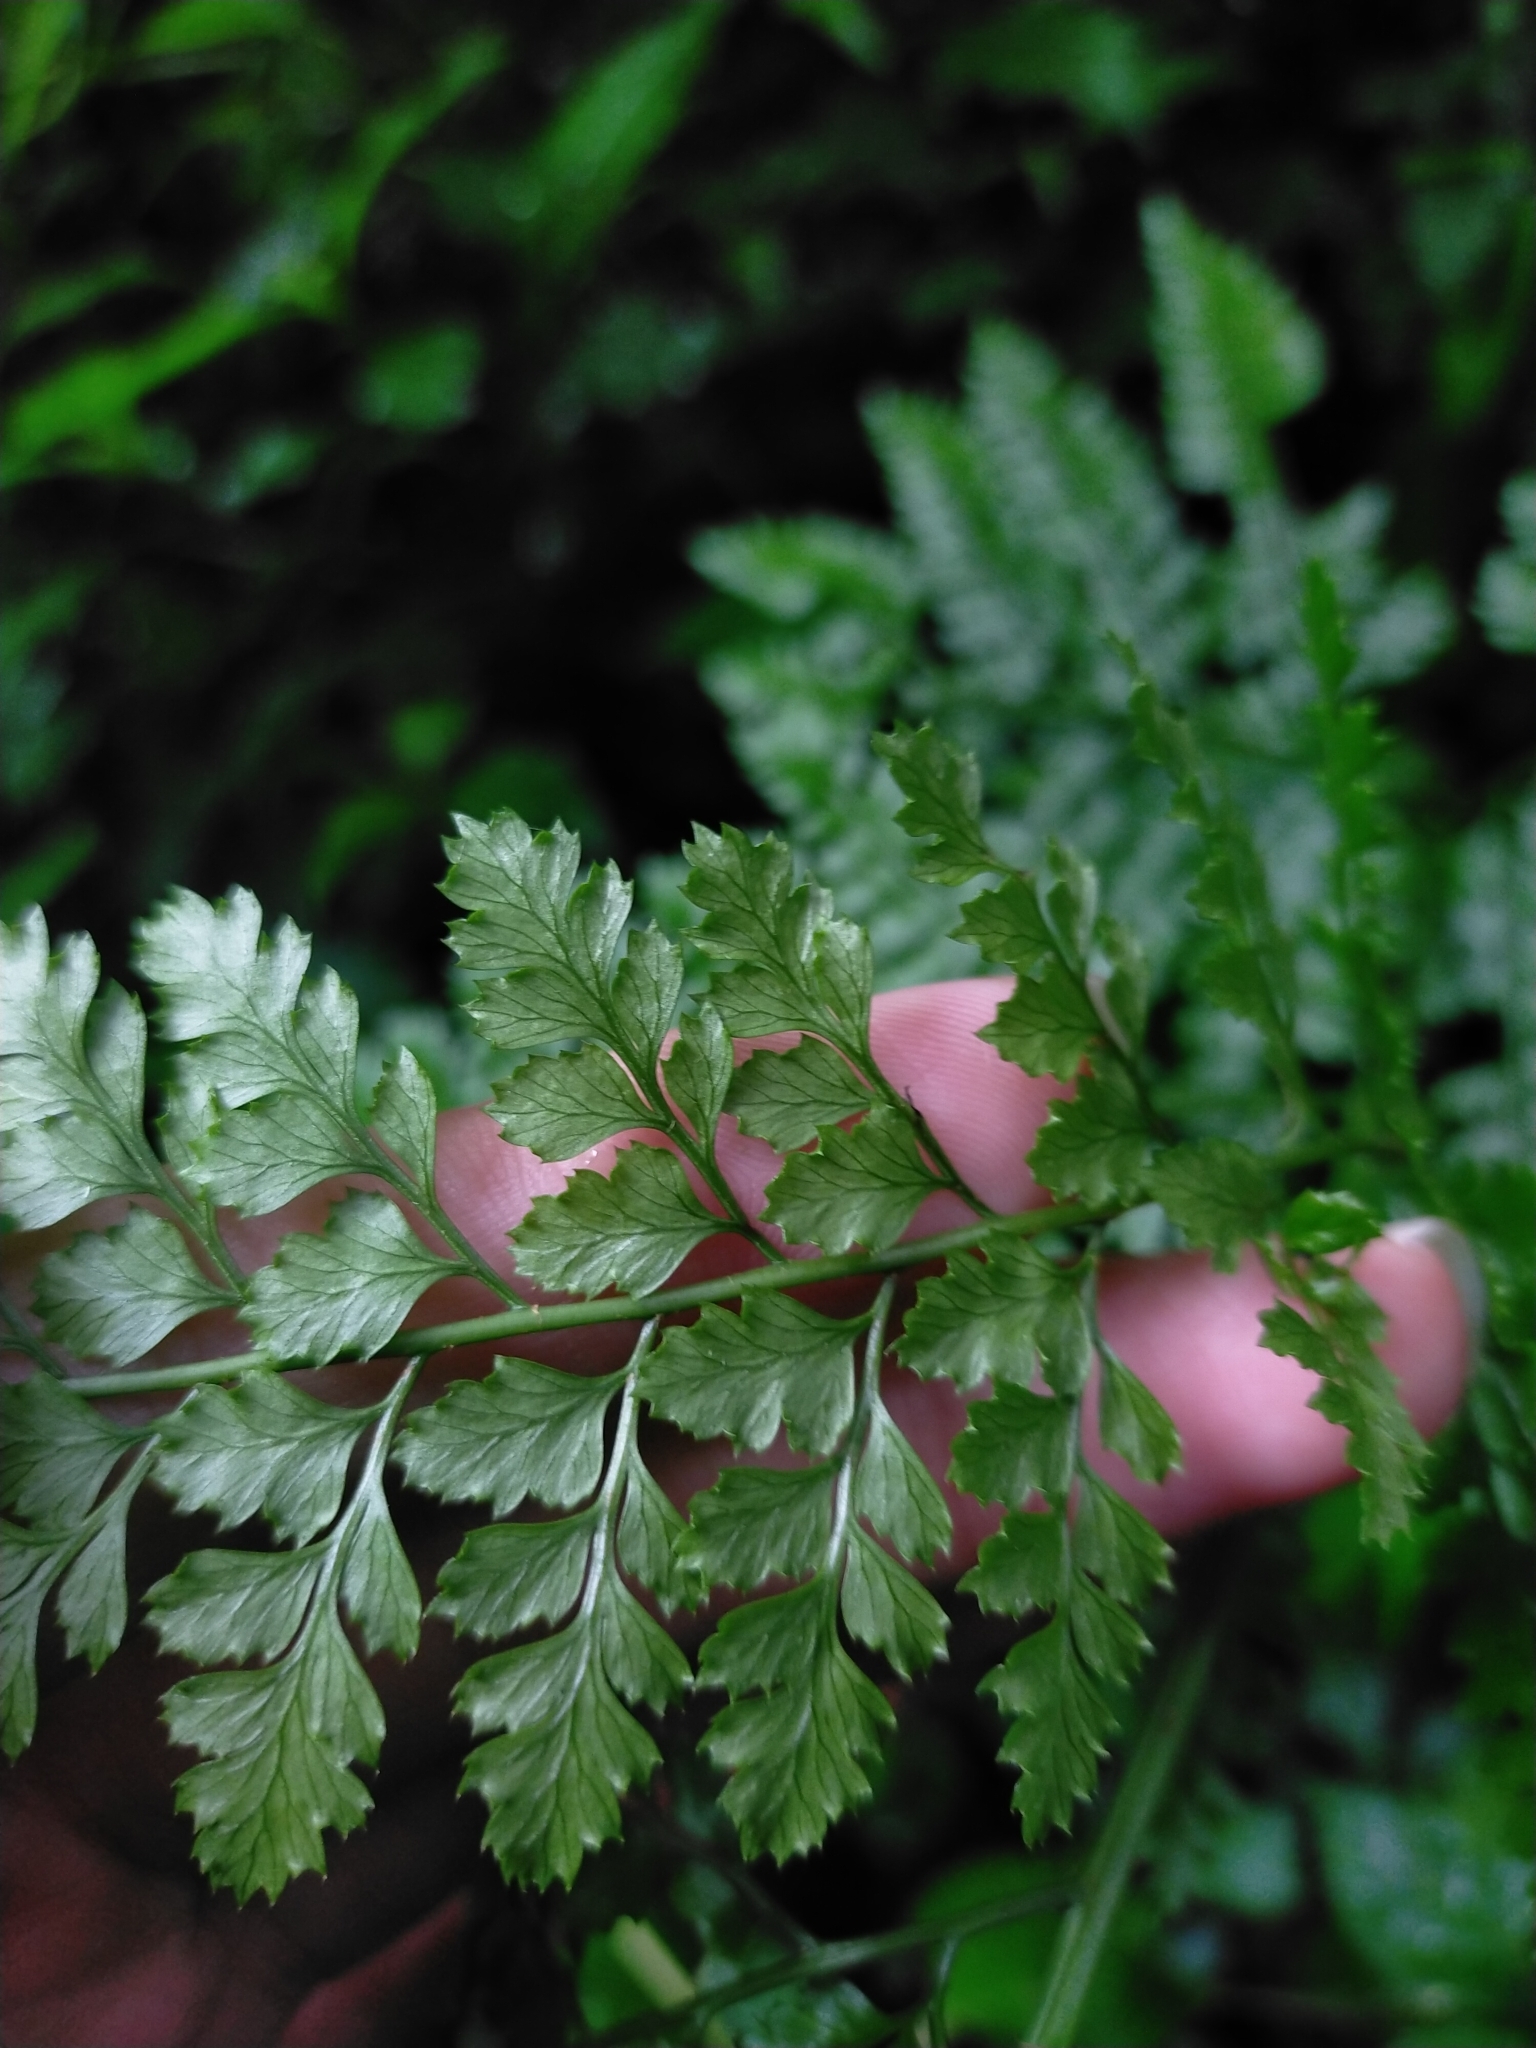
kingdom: Plantae
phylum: Tracheophyta
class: Polypodiopsida
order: Polypodiales
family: Dryopteridaceae
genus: Arachniodes
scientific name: Arachniodes festina
